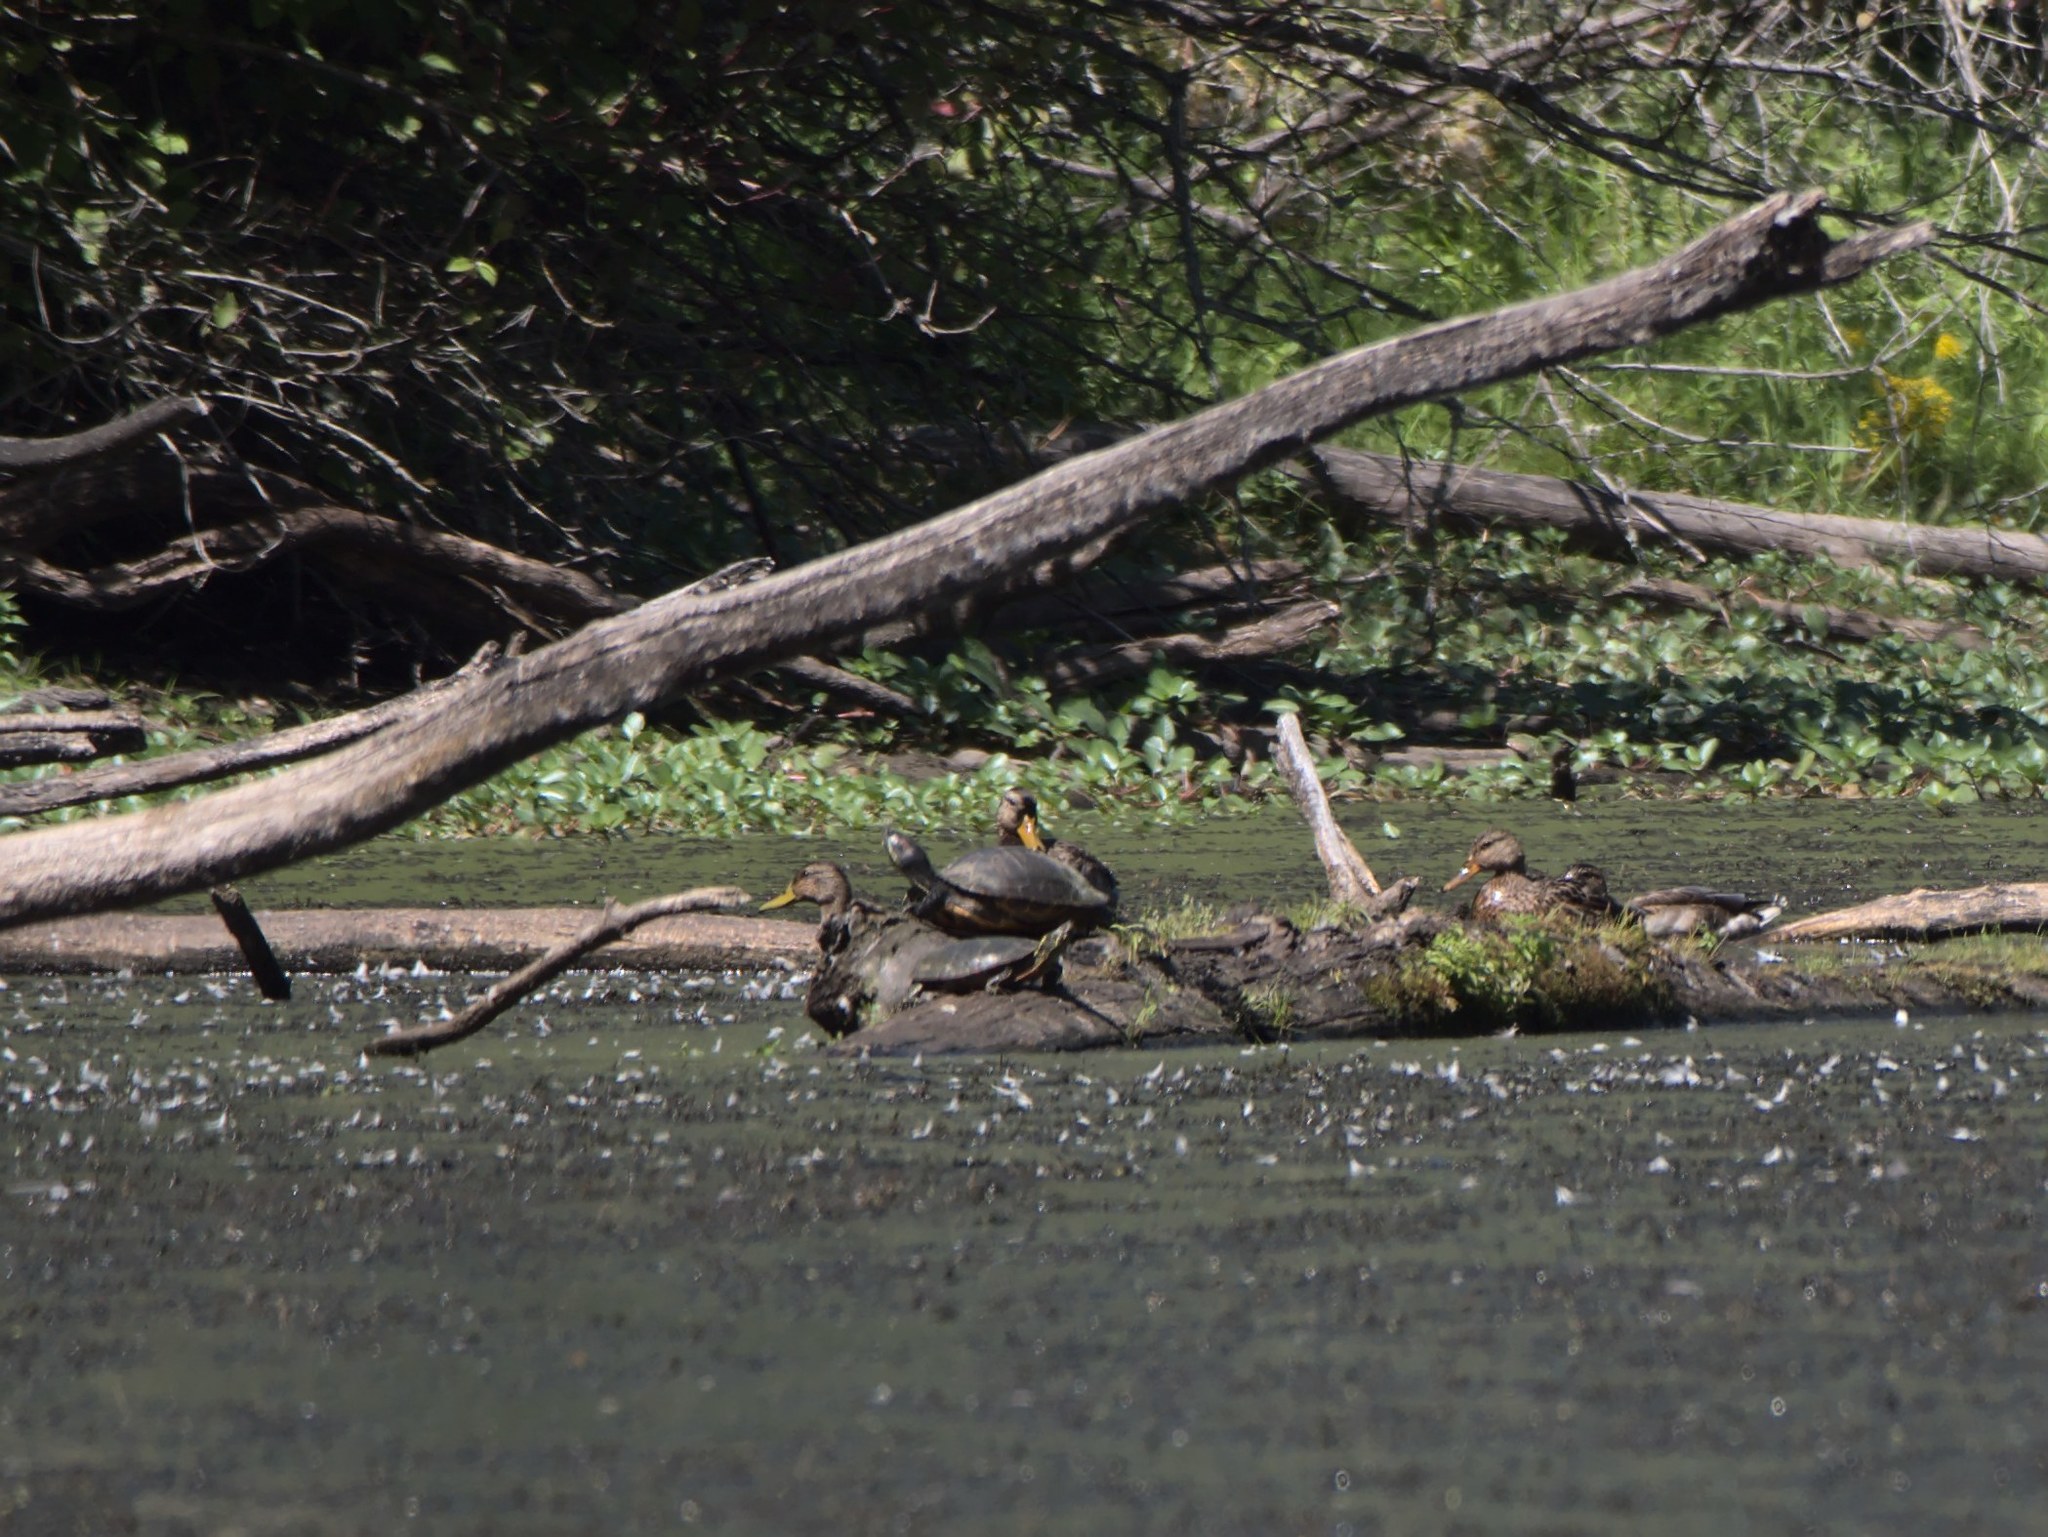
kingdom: Animalia
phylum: Chordata
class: Testudines
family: Emydidae
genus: Trachemys
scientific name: Trachemys scripta
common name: Slider
